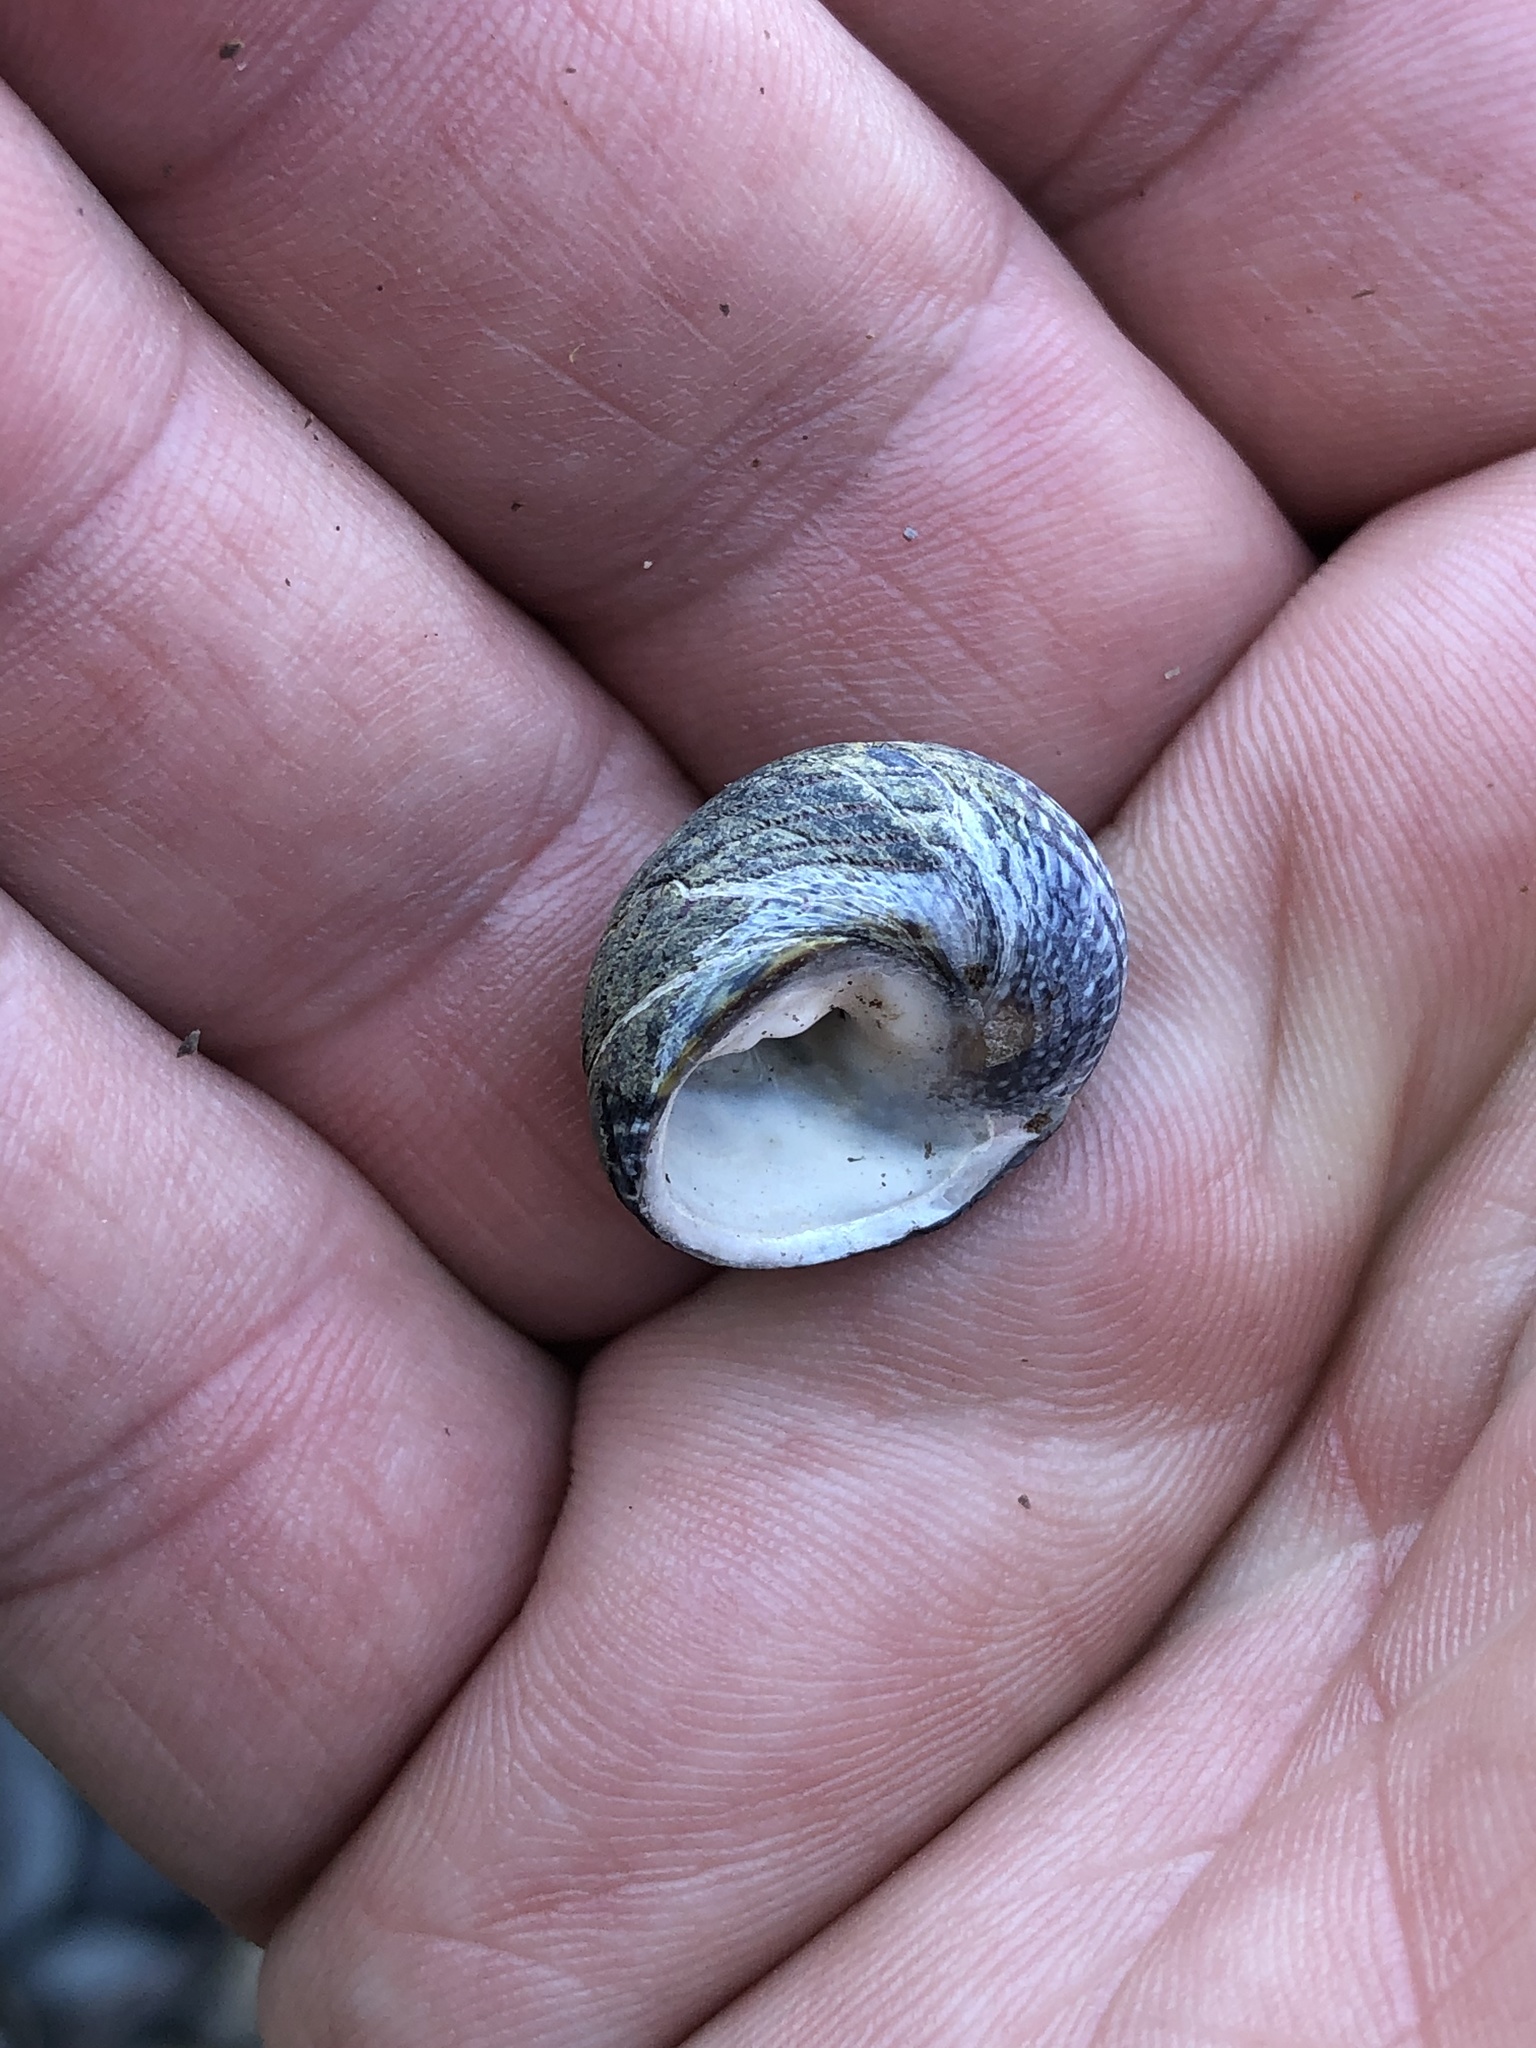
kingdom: Animalia
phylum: Mollusca
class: Gastropoda
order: Trochida
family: Trochidae
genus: Diloma
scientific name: Diloma aethiops
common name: Scorched monodont
